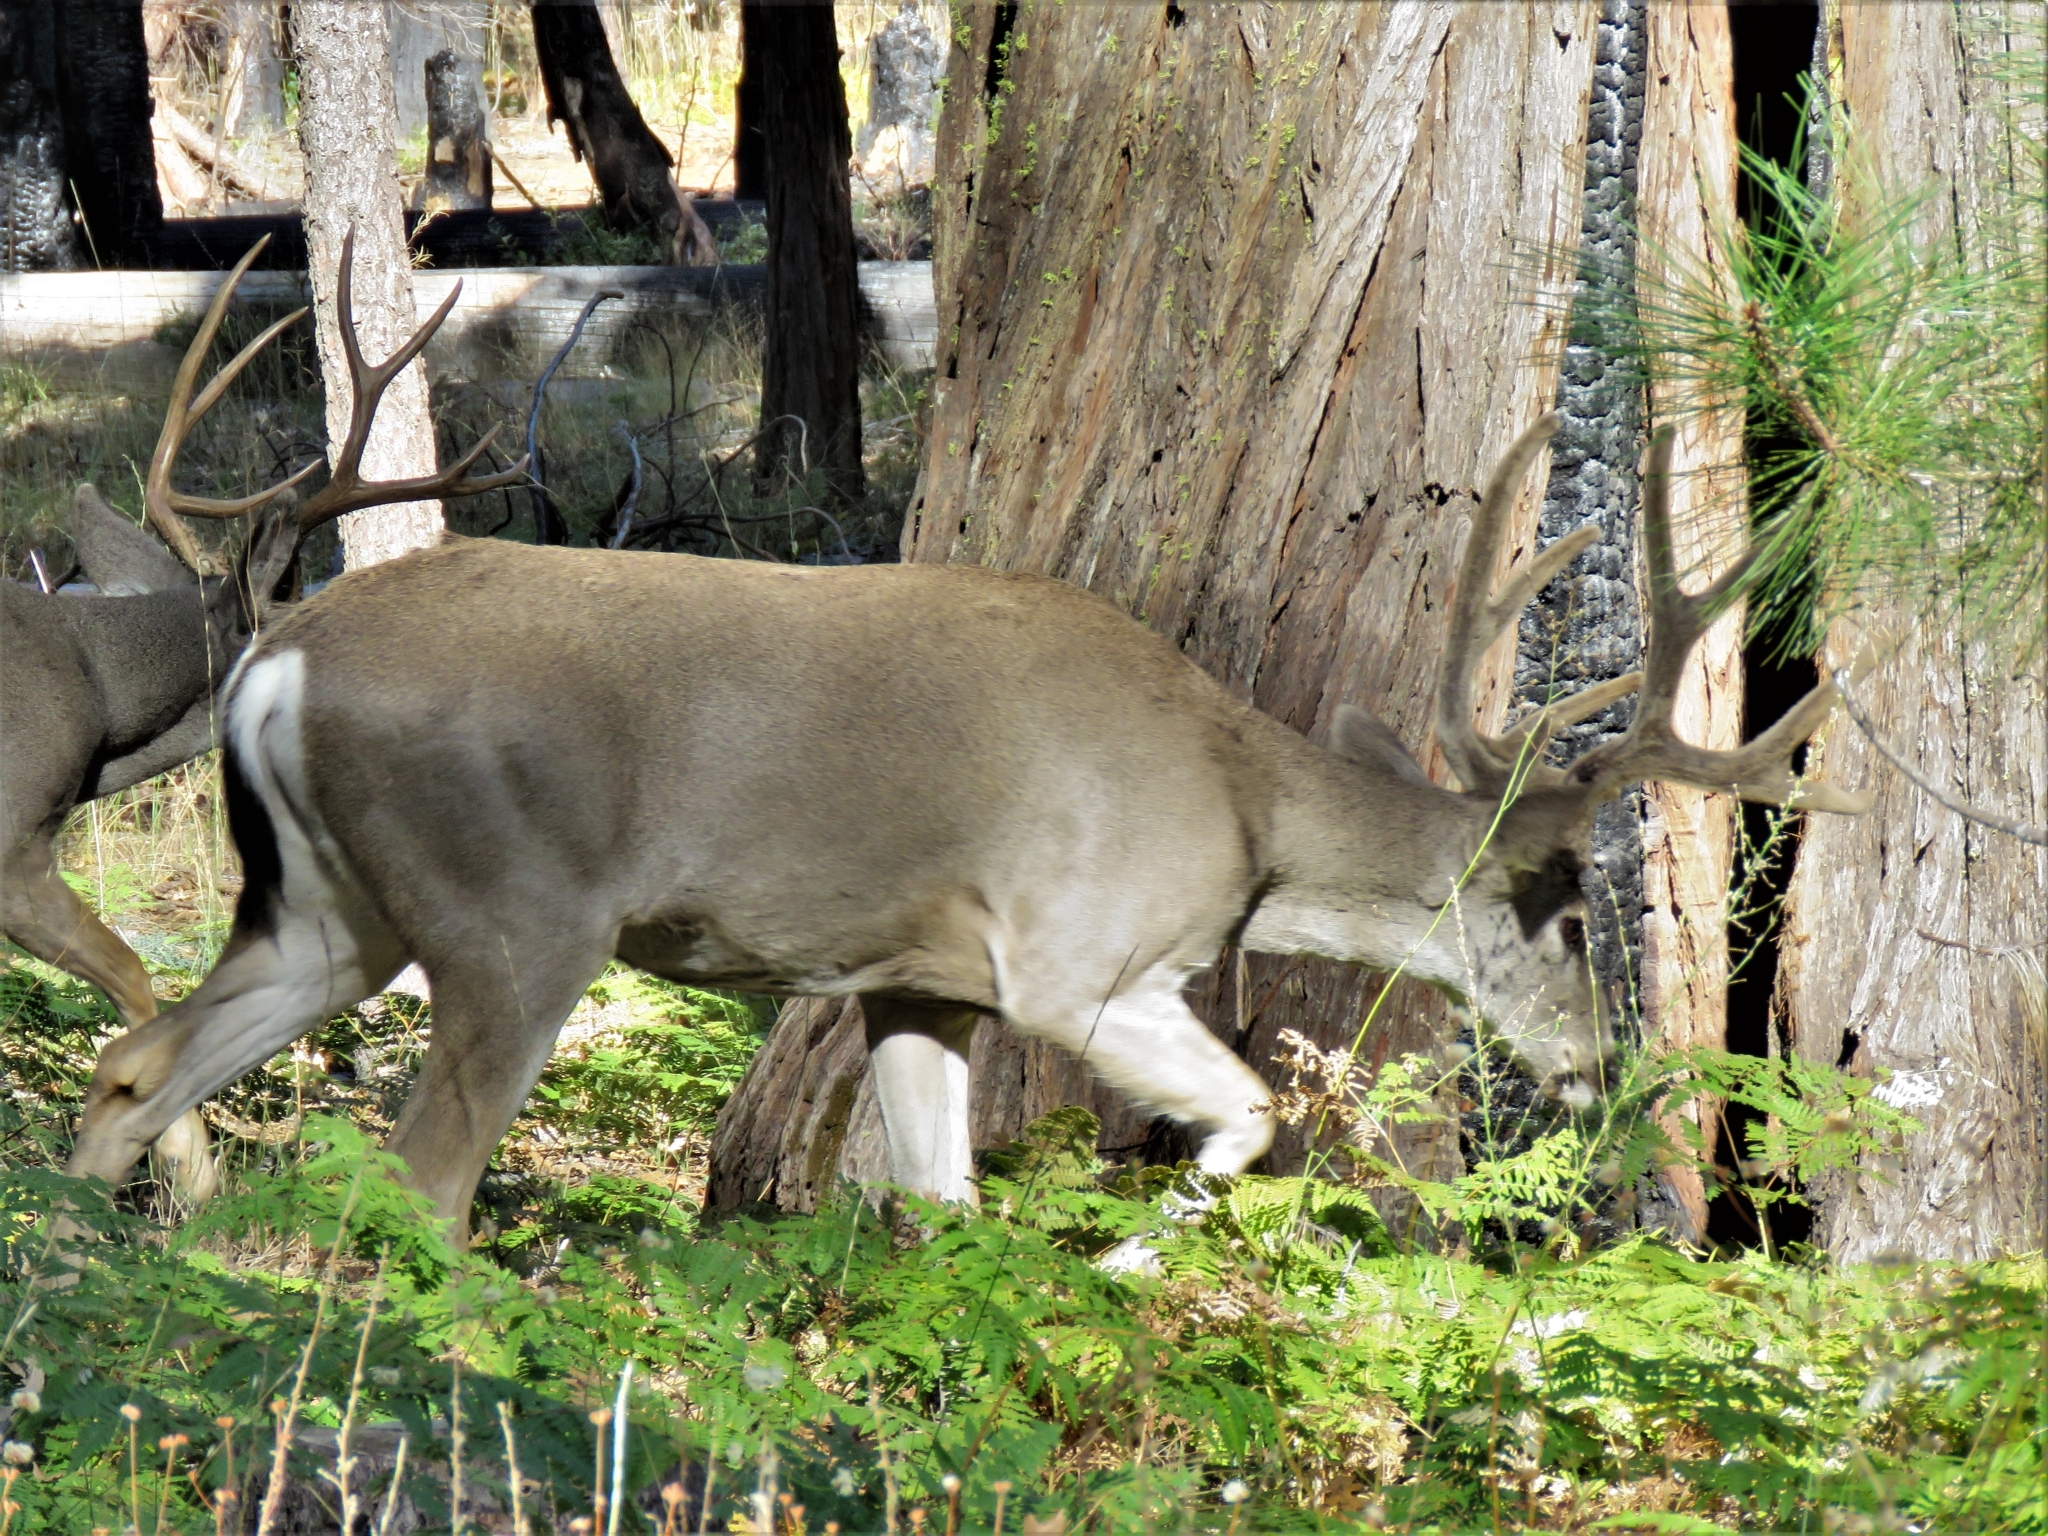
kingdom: Animalia
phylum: Chordata
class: Mammalia
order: Artiodactyla
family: Cervidae
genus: Odocoileus
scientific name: Odocoileus hemionus
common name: Mule deer
